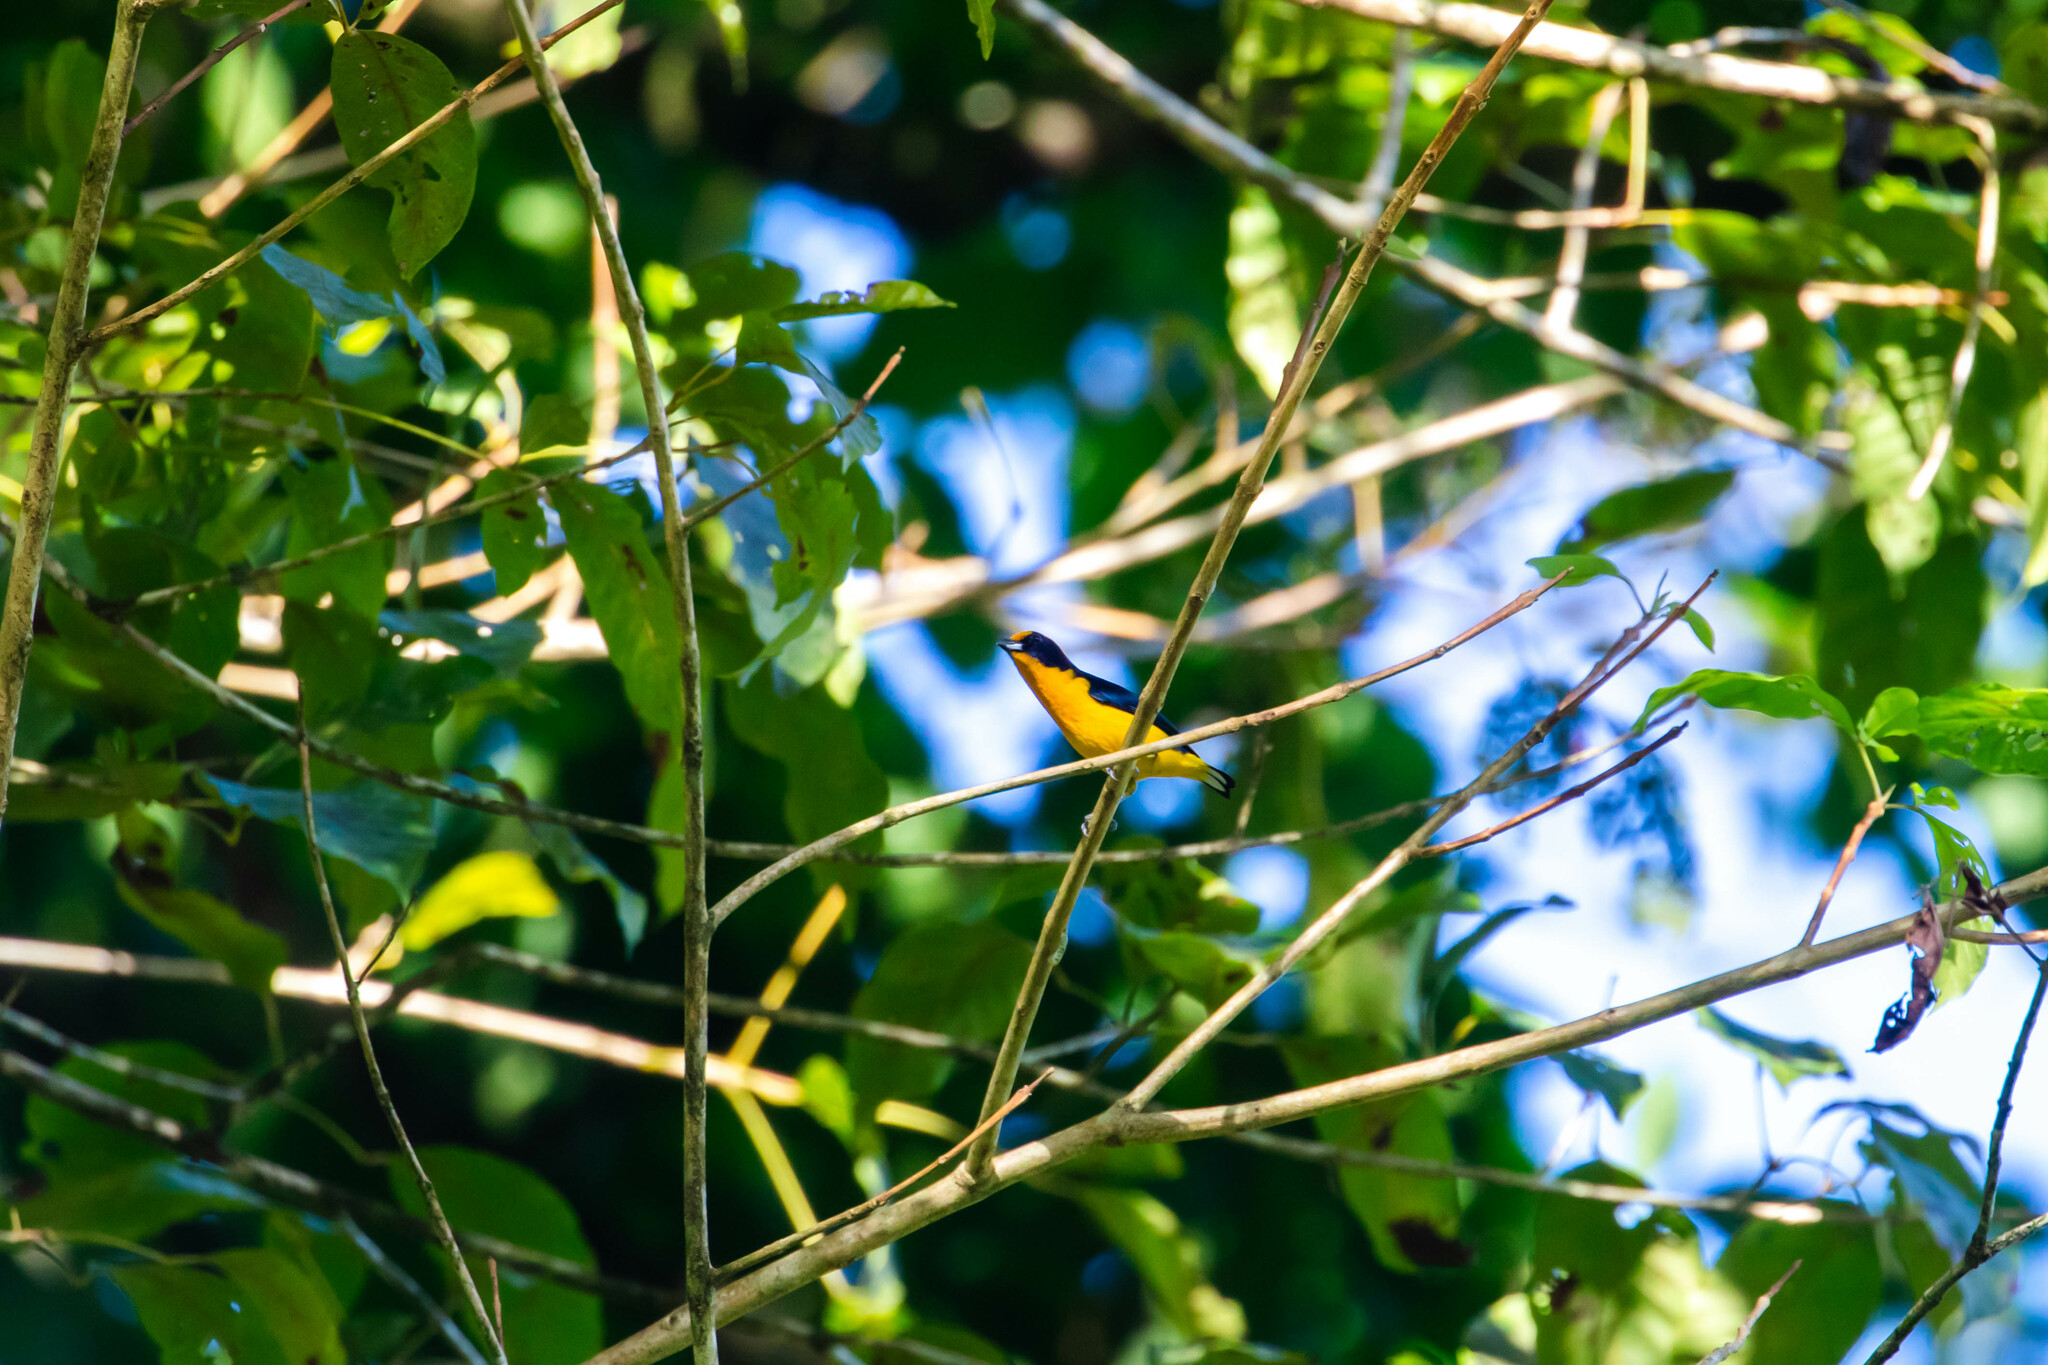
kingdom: Animalia
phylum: Chordata
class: Aves
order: Passeriformes
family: Fringillidae
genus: Euphonia
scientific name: Euphonia violacea
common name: Violaceous euphonia
